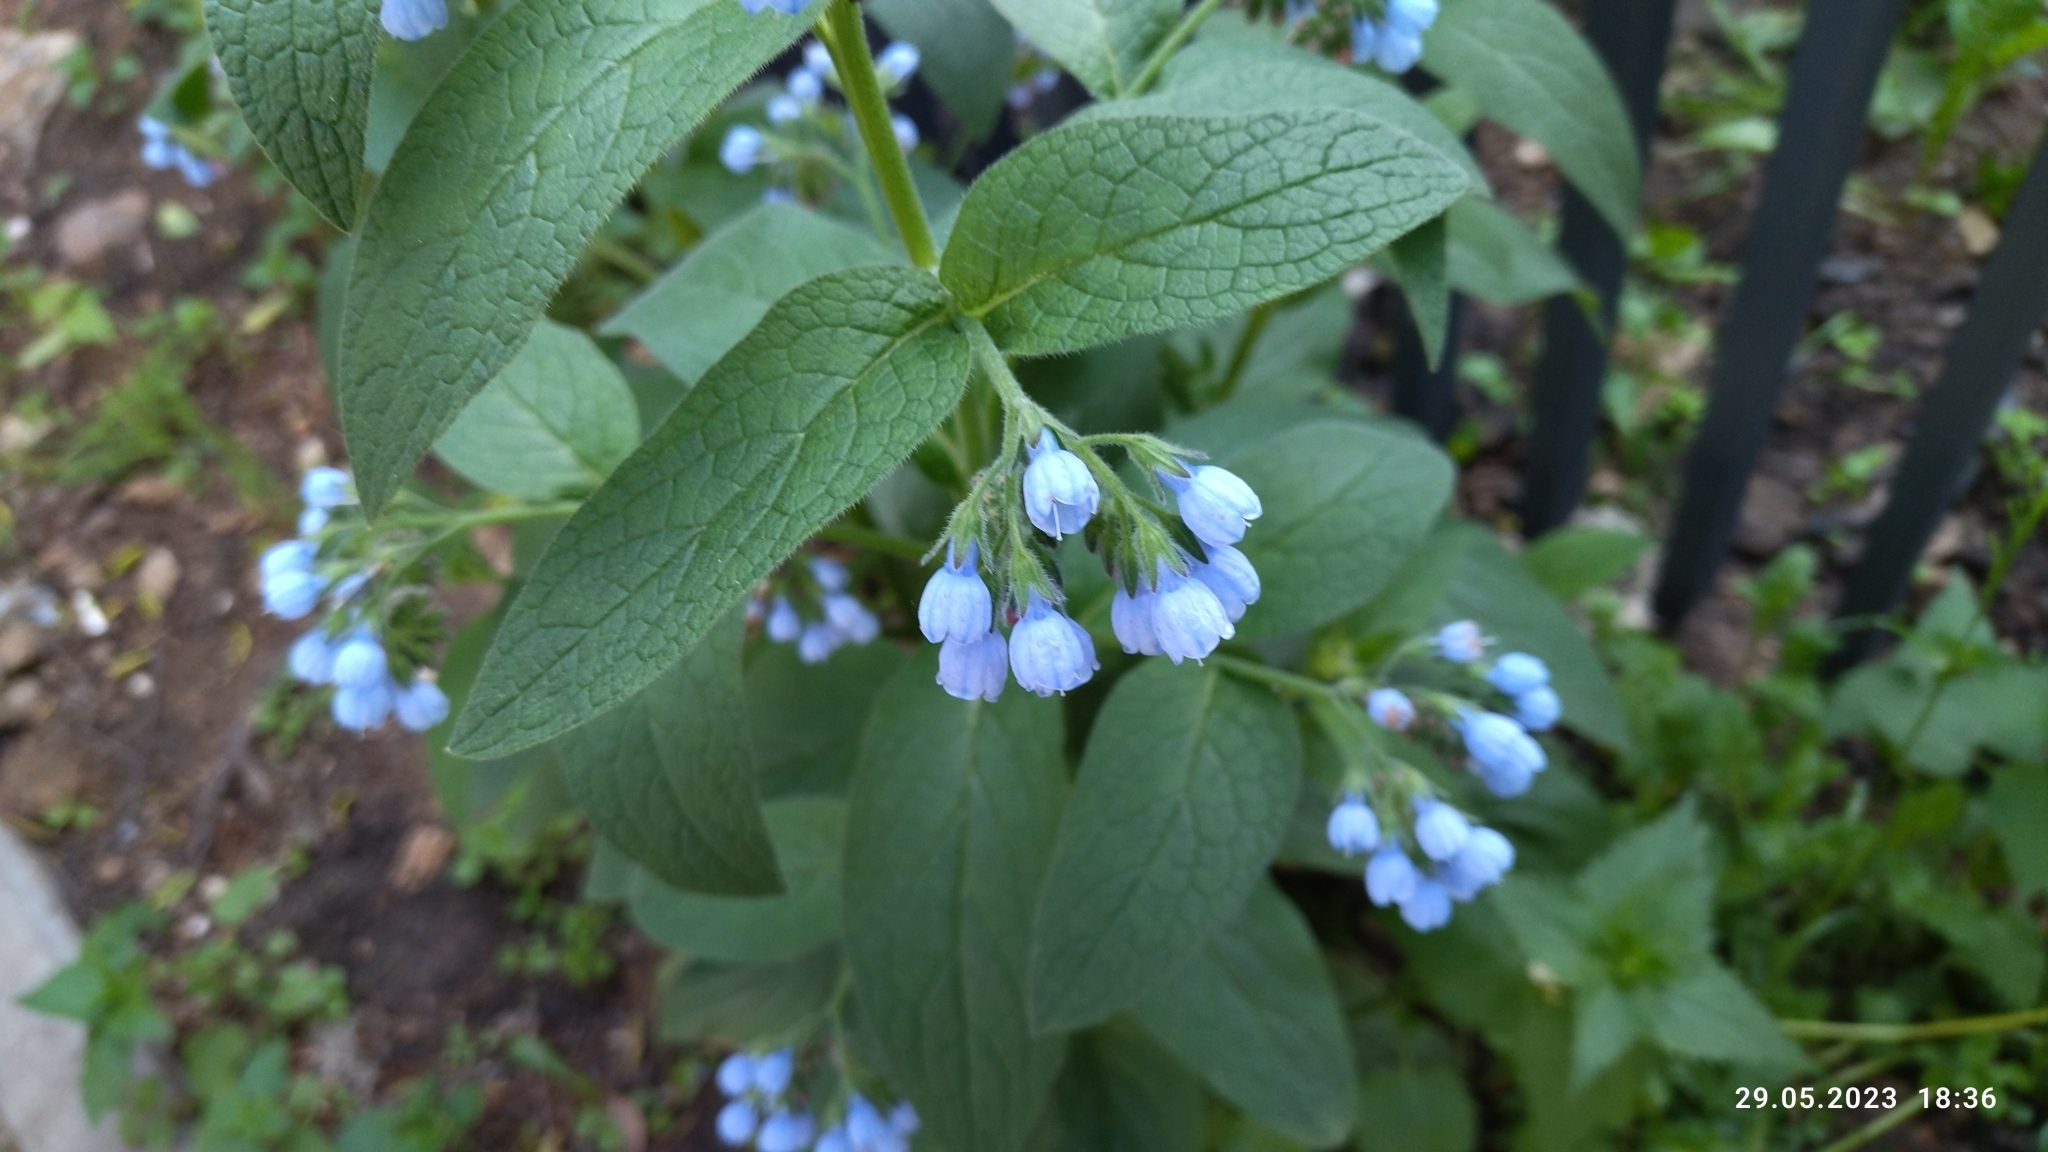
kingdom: Plantae
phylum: Tracheophyta
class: Magnoliopsida
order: Boraginales
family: Boraginaceae
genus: Symphytum
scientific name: Symphytum caucasicum
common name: Caucasian comfrey
